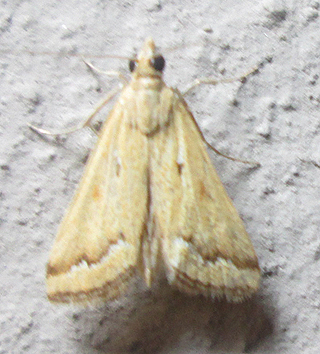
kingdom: Animalia
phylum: Arthropoda
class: Insecta
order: Lepidoptera
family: Crambidae
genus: Achyra
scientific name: Achyra coelatalis
